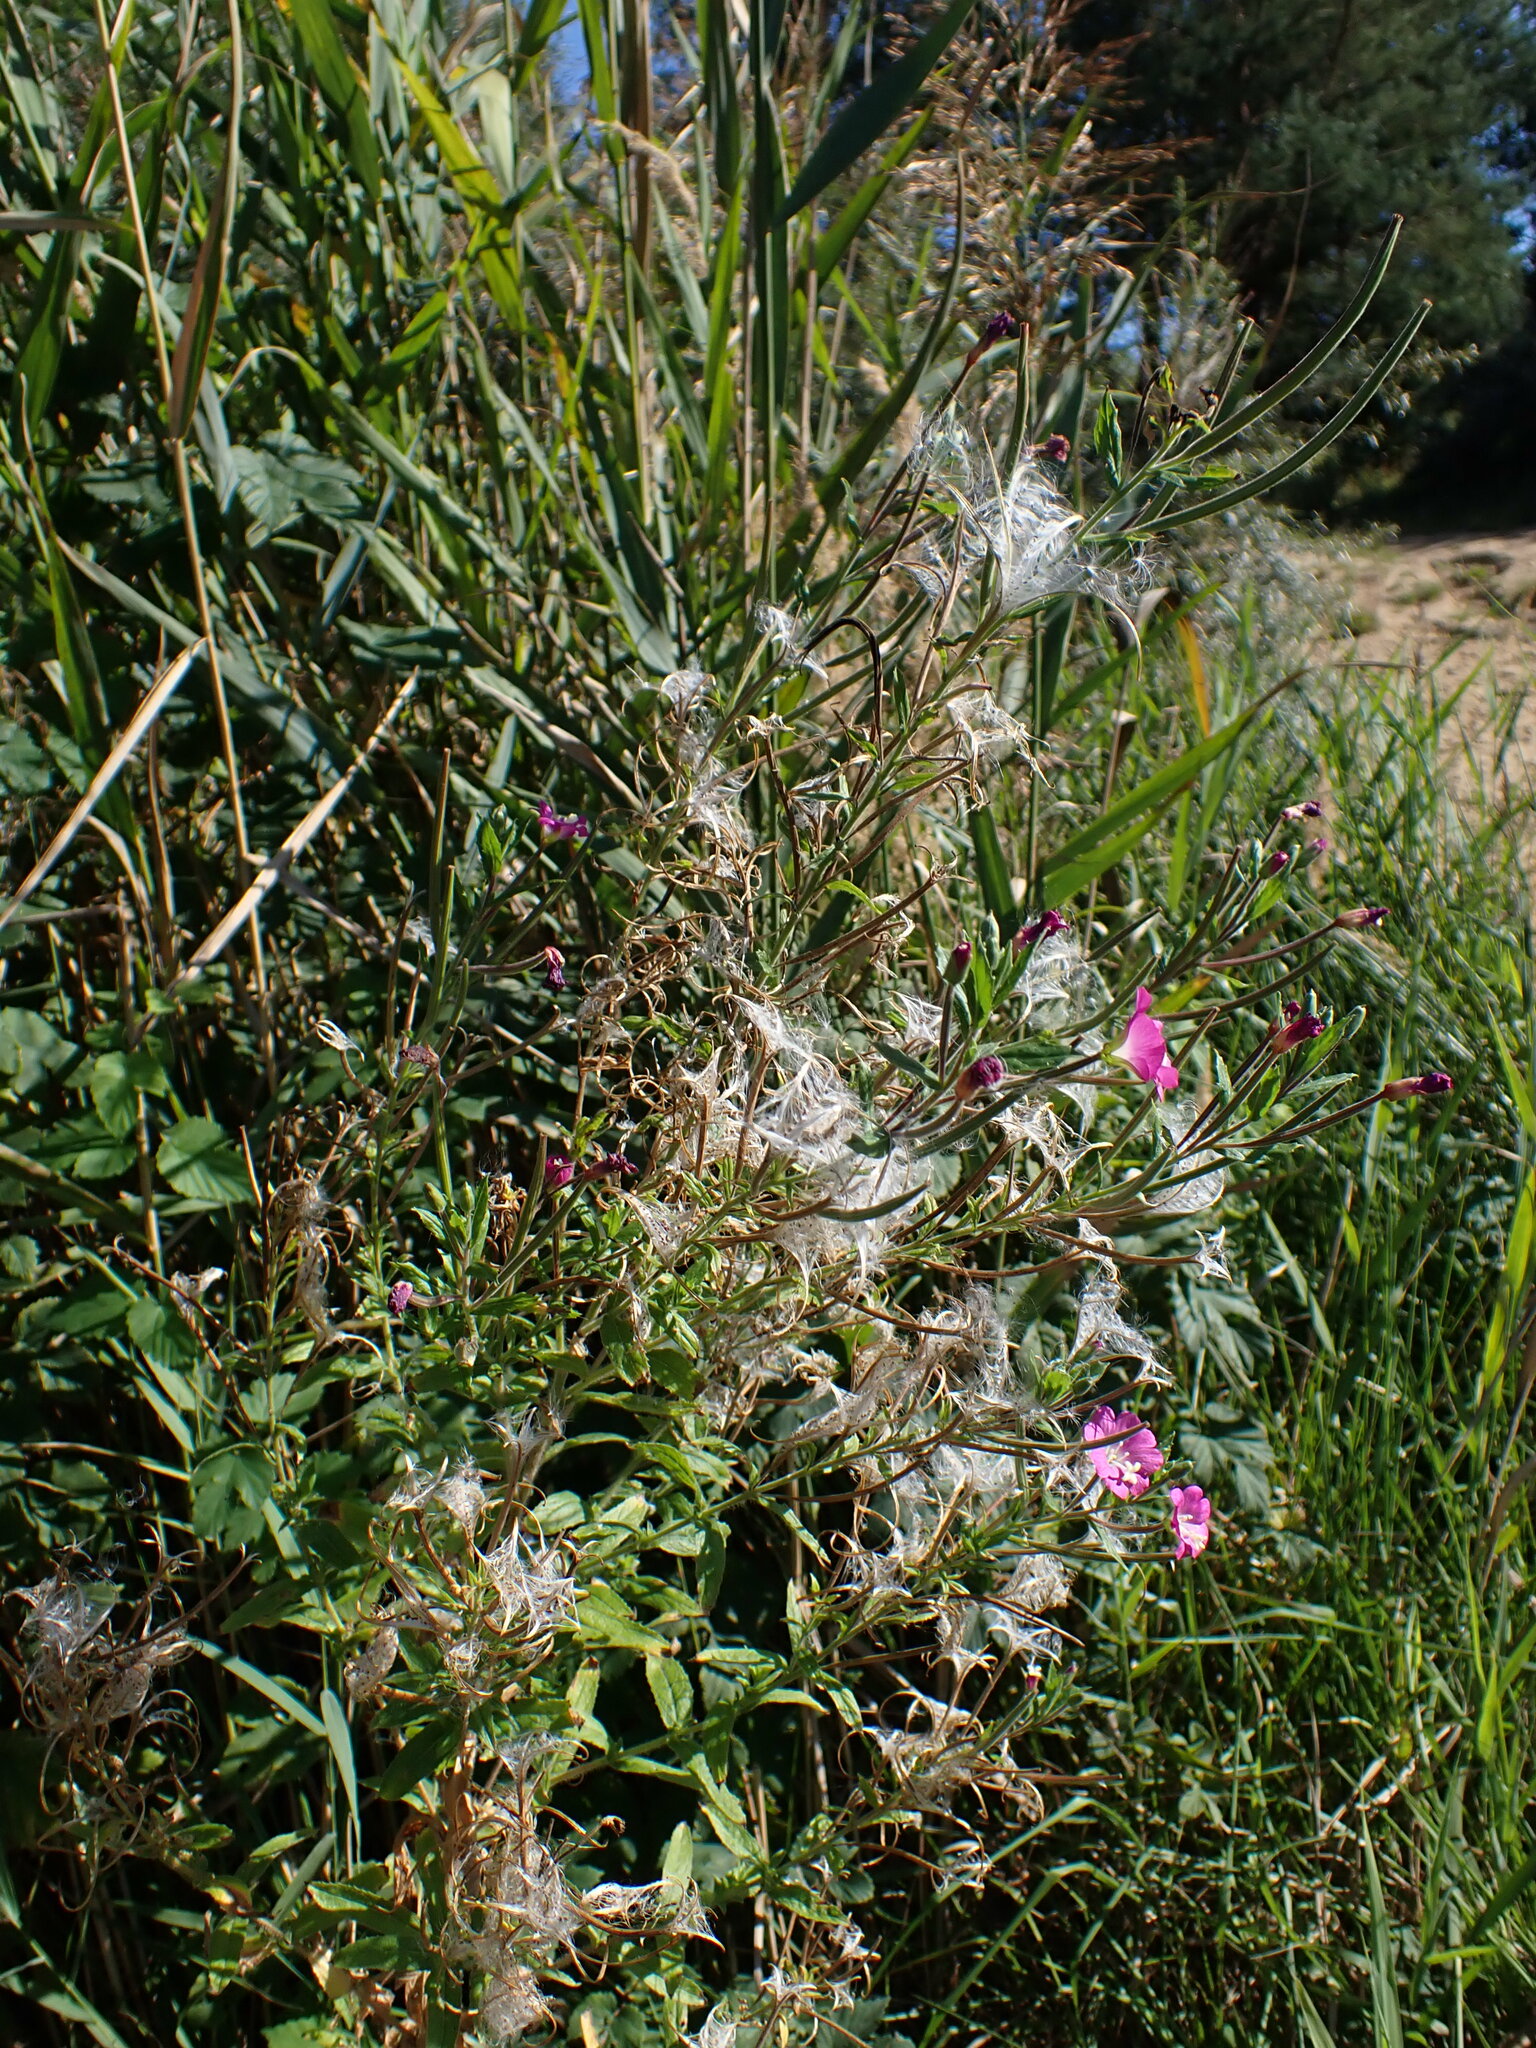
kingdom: Plantae
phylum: Tracheophyta
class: Magnoliopsida
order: Myrtales
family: Onagraceae
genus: Epilobium
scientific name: Epilobium hirsutum
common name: Great willowherb
